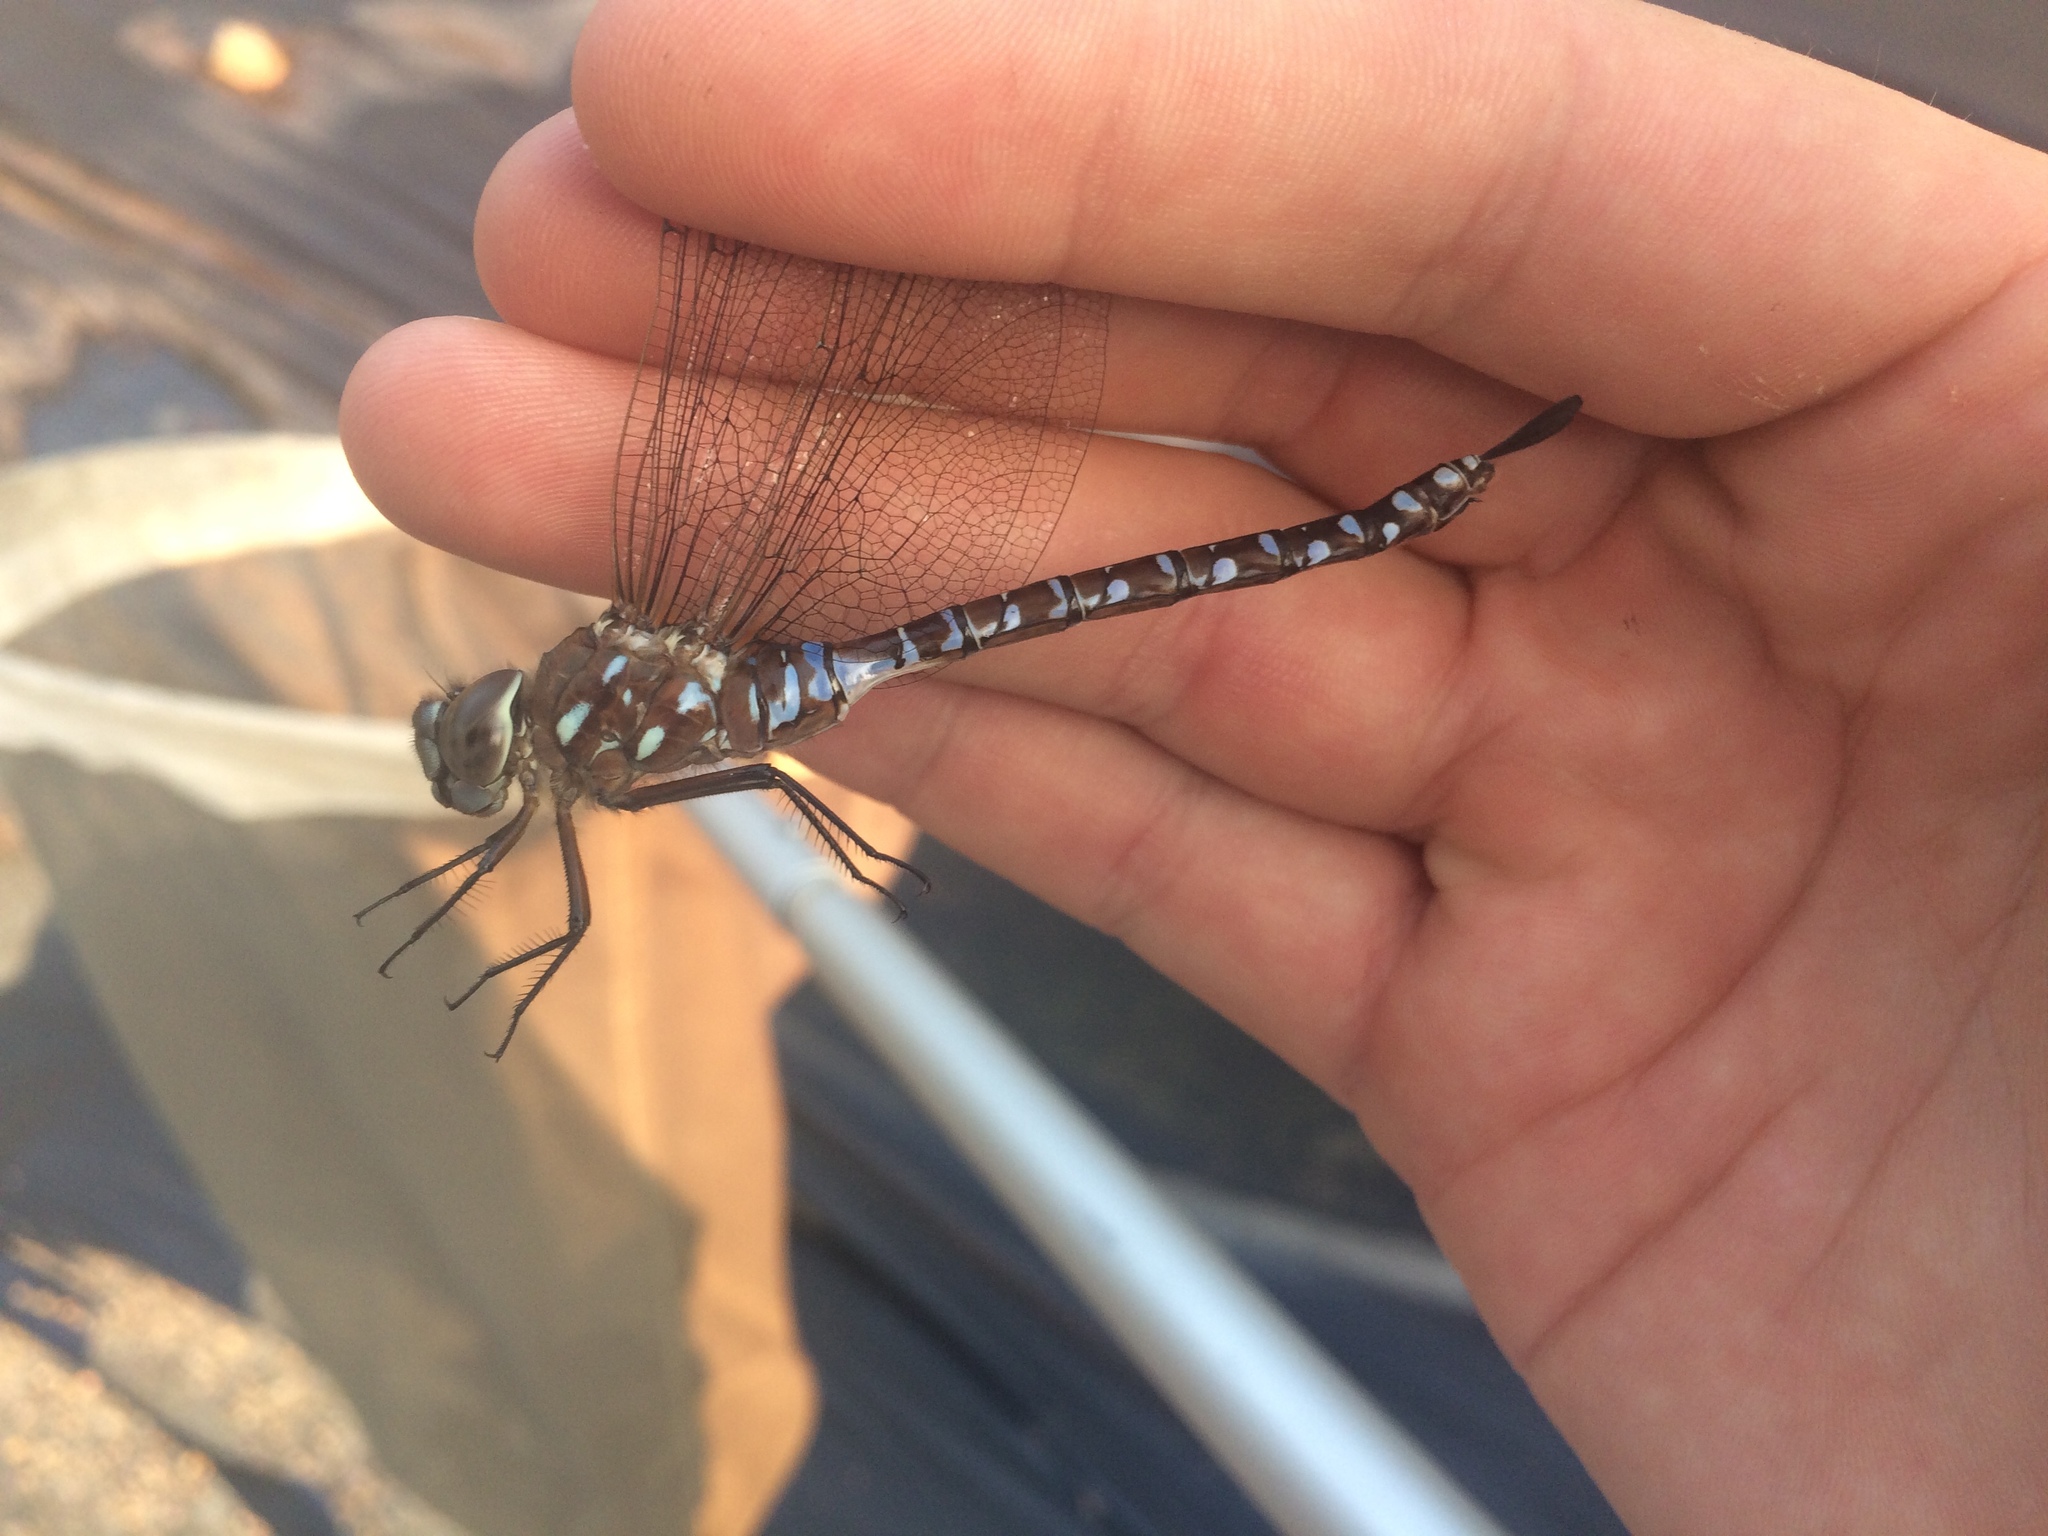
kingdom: Animalia
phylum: Arthropoda
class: Insecta
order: Odonata
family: Aeshnidae
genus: Aeshna
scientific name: Aeshna interrupta
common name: Variable darner
